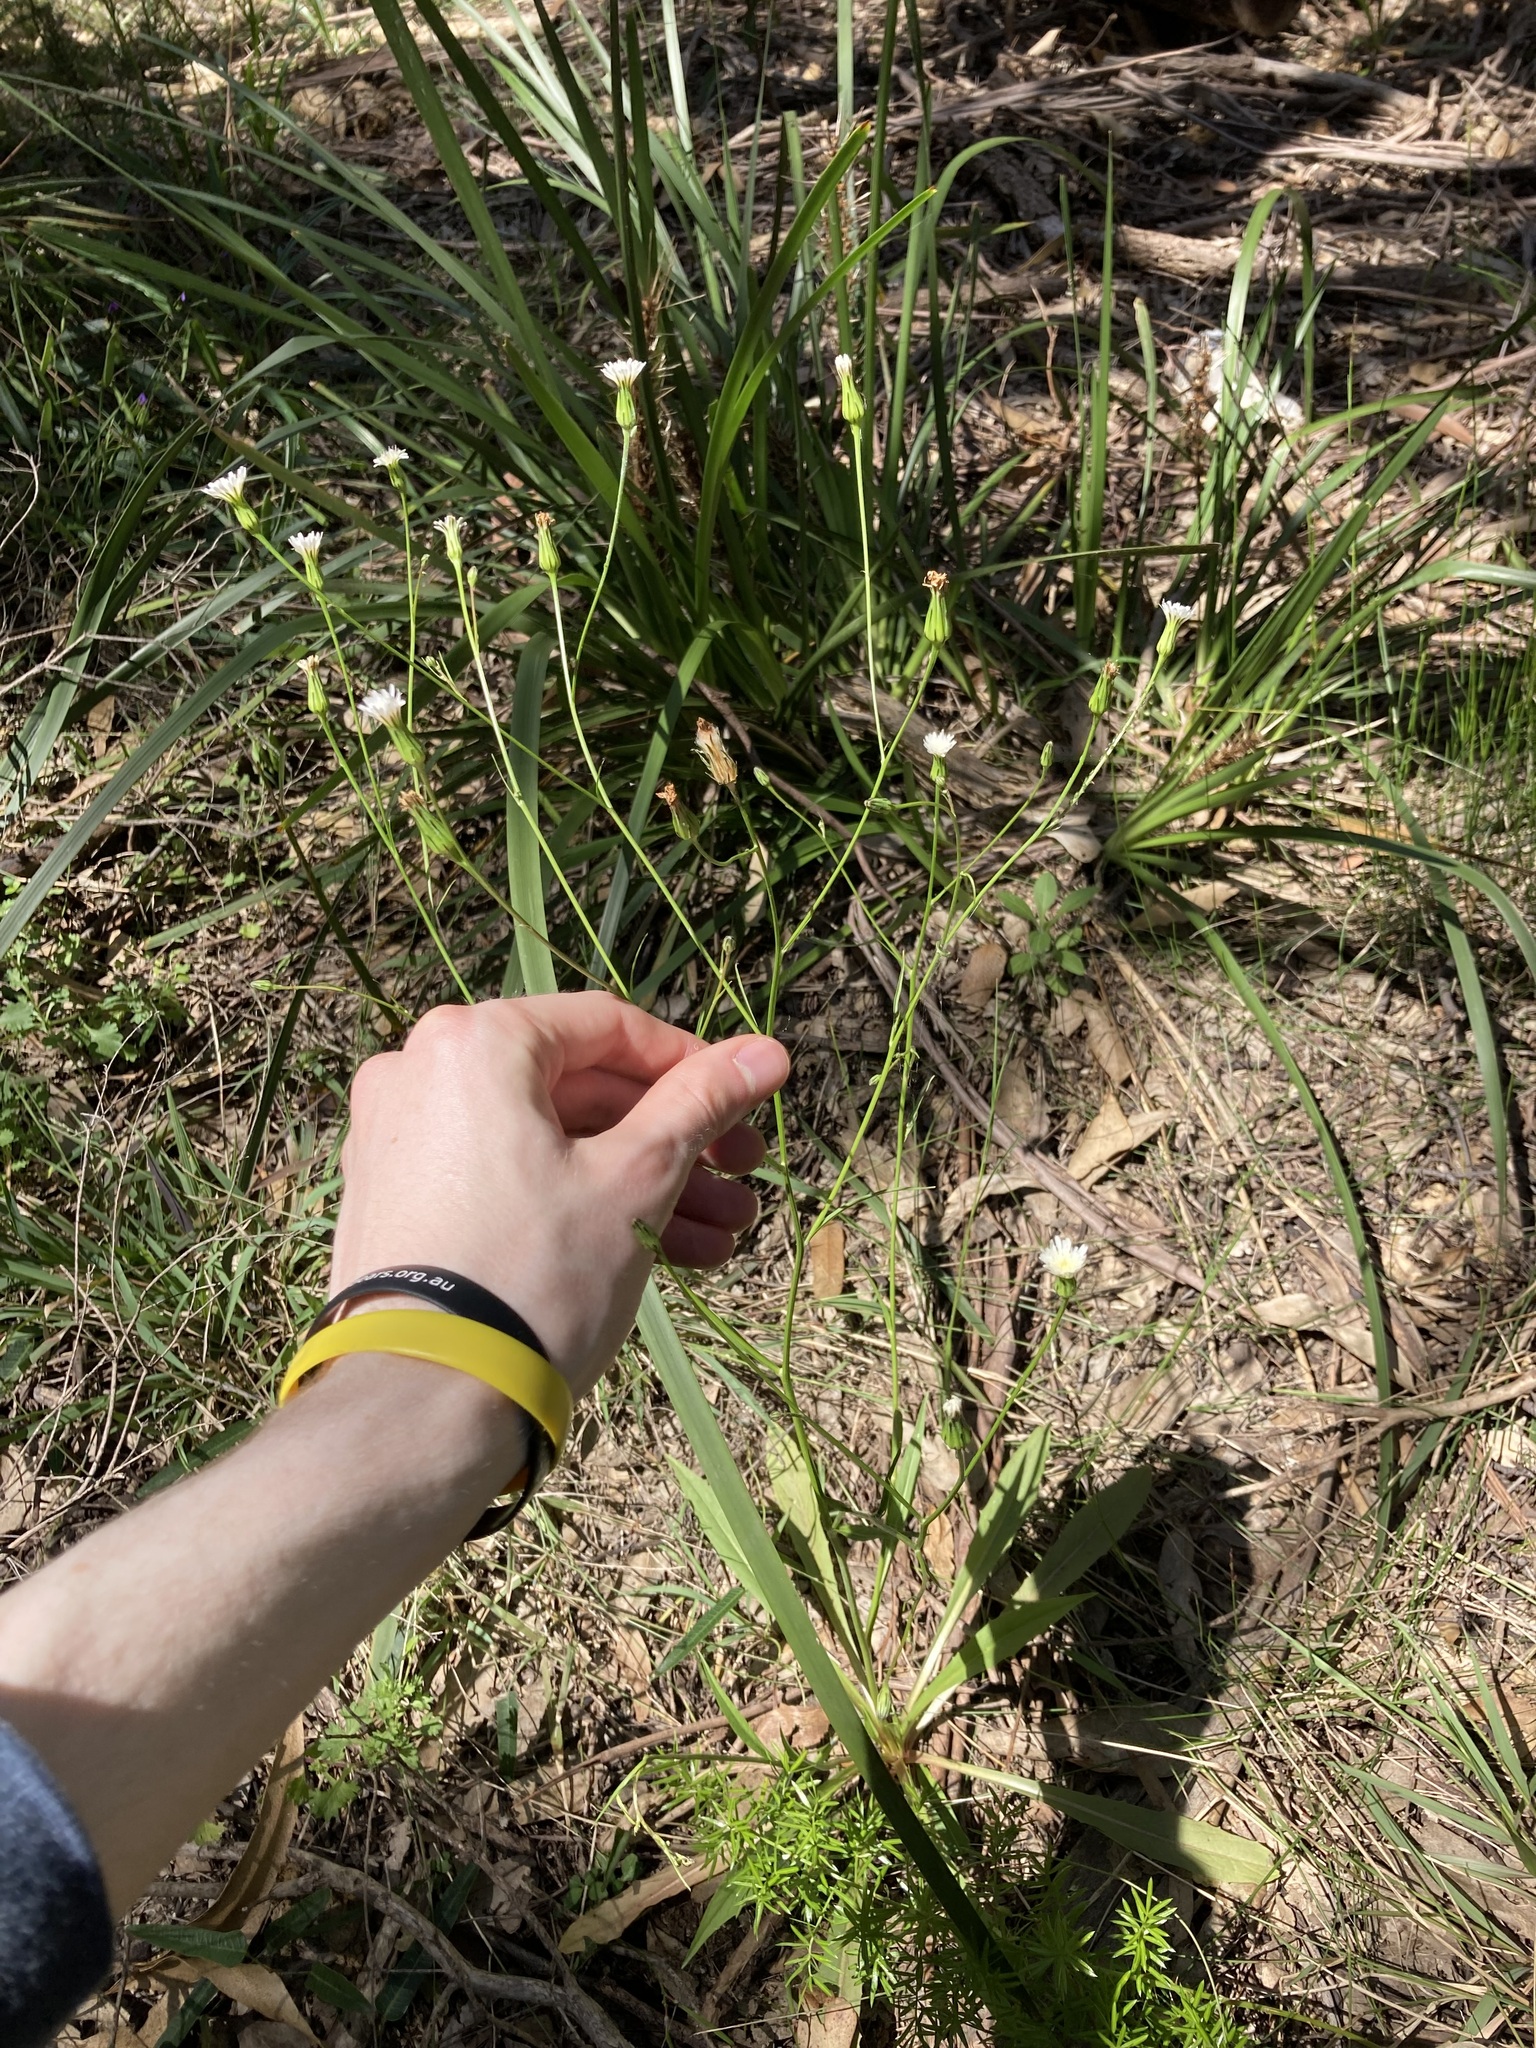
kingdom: Plantae
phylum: Tracheophyta
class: Magnoliopsida
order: Asterales
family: Asteraceae
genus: Hypochaeris
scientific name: Hypochaeris albiflora
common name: White flatweed
